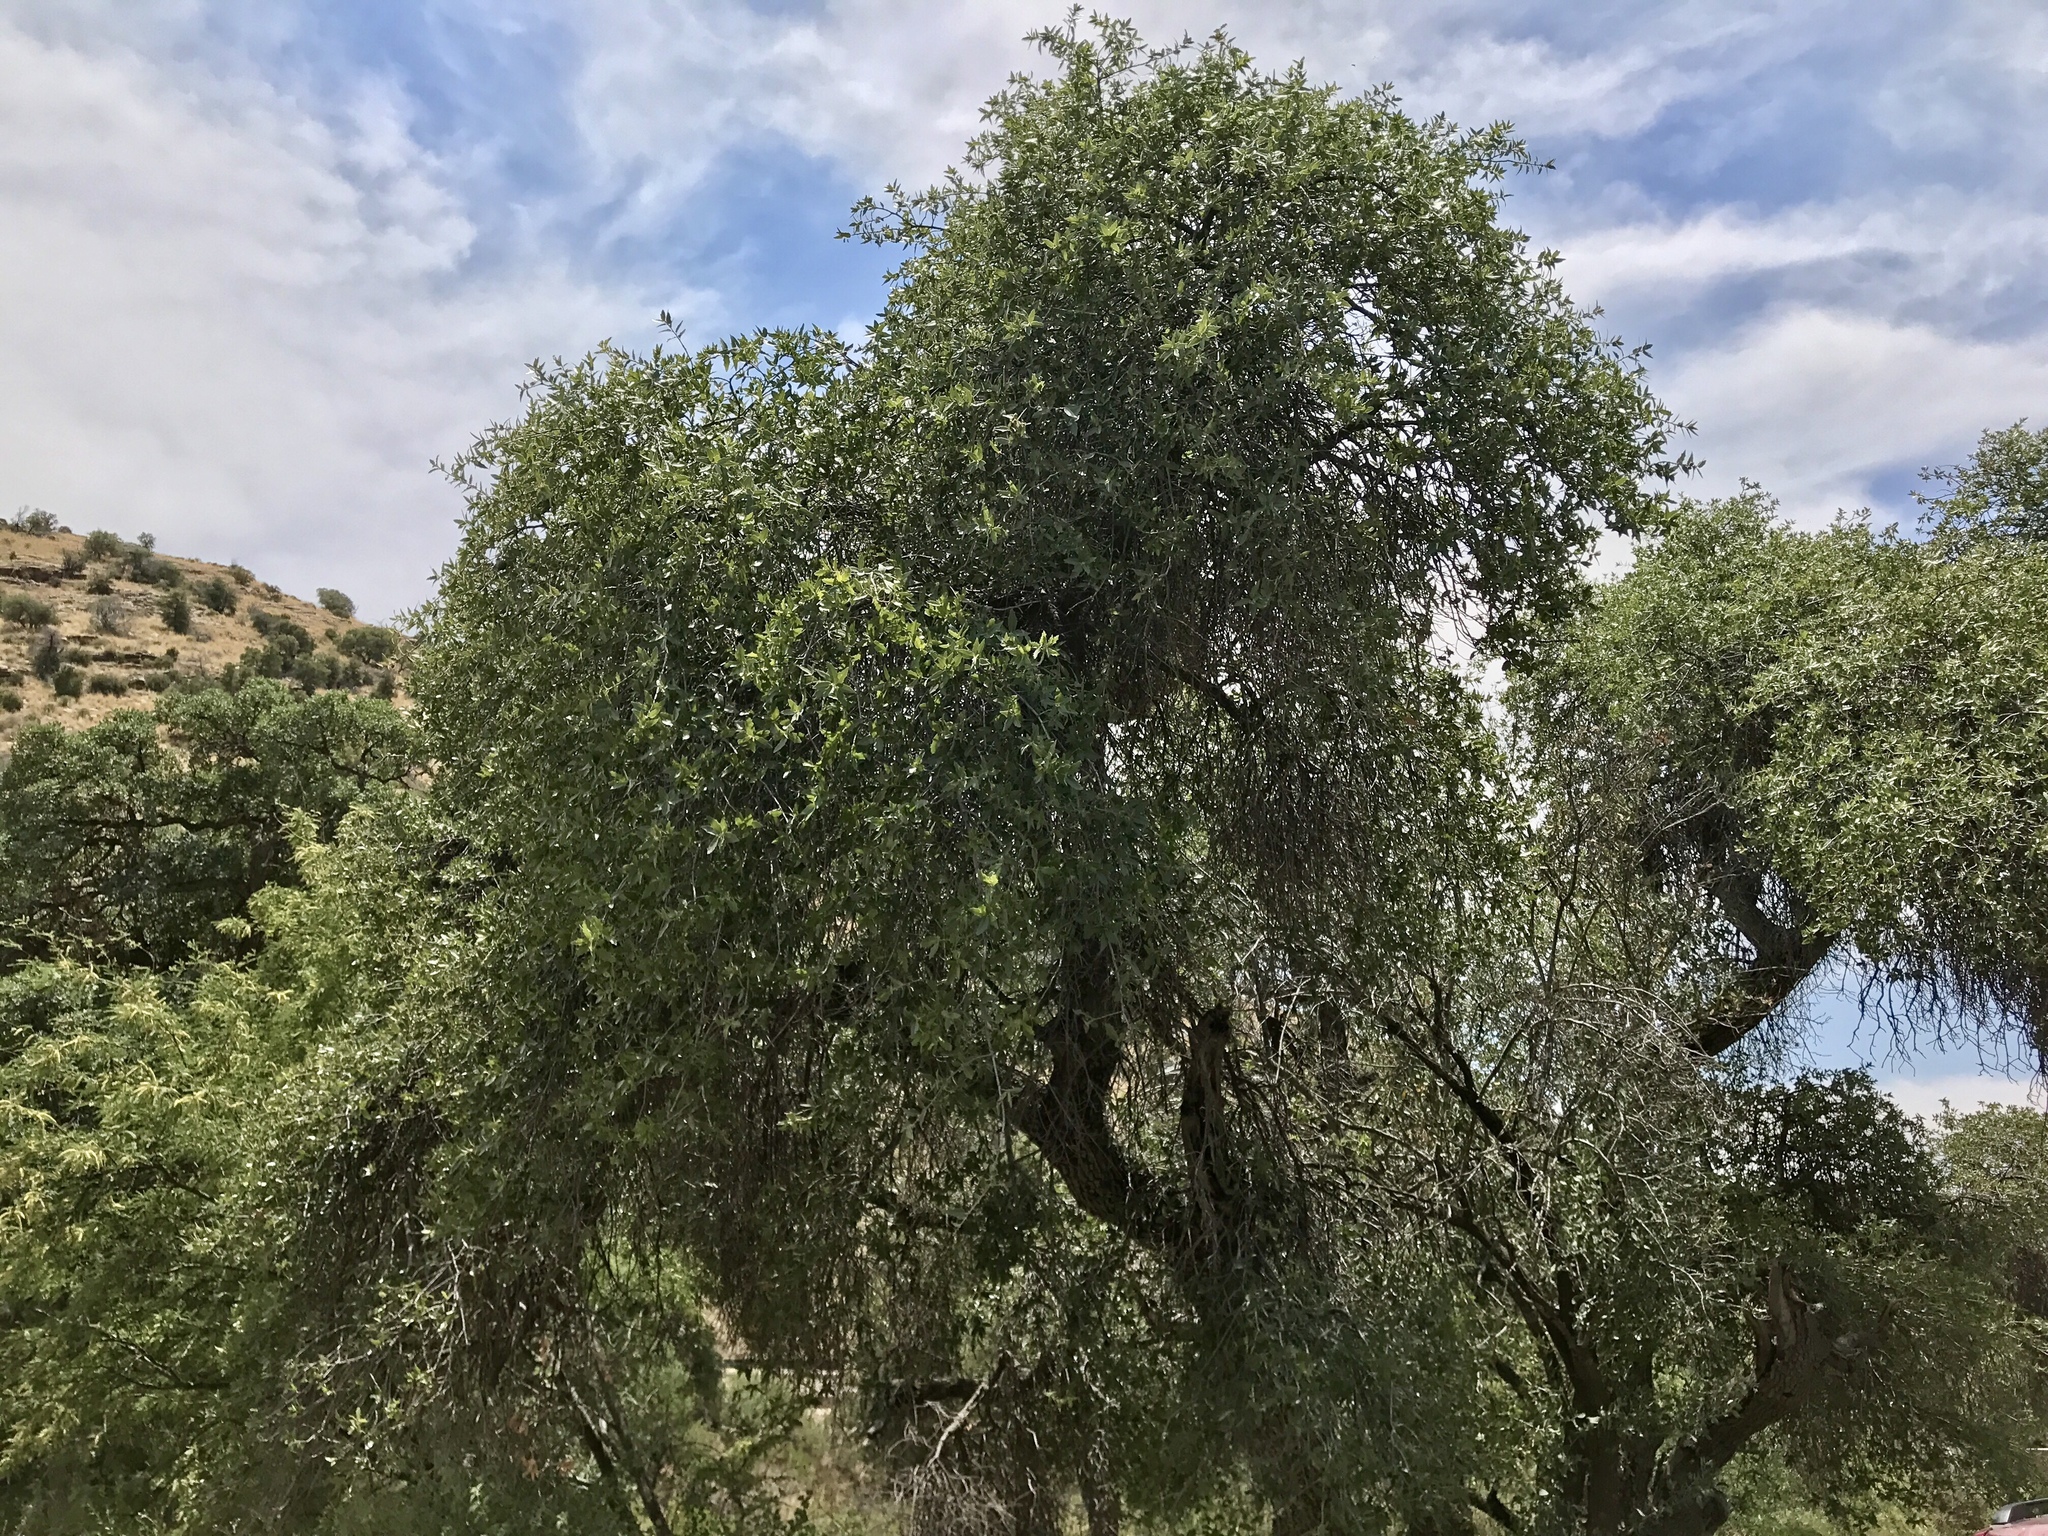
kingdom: Plantae
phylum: Tracheophyta
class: Magnoliopsida
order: Fagales
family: Fagaceae
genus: Quercus
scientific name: Quercus emoryi
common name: Emory oak
